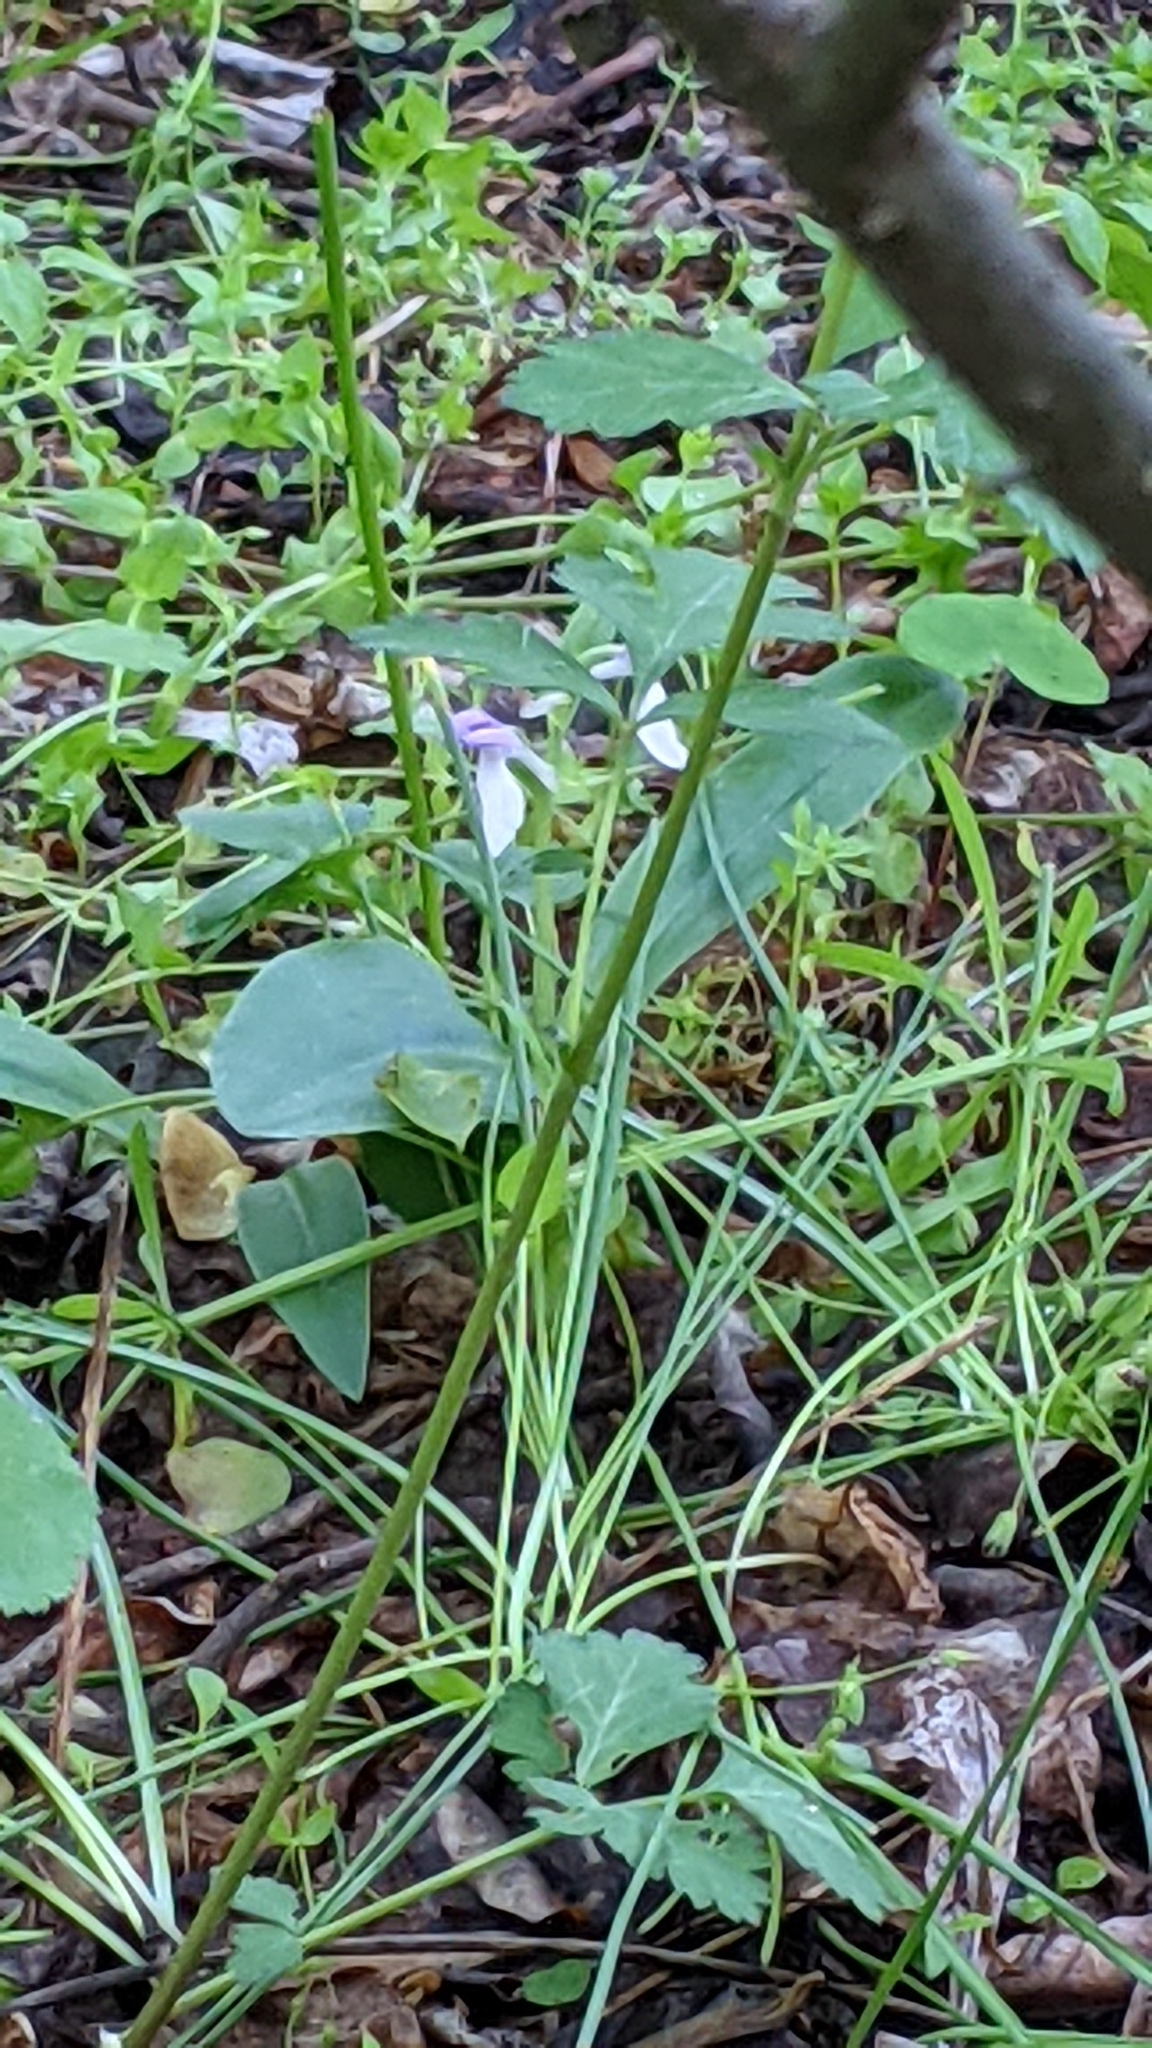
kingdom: Plantae
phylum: Tracheophyta
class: Liliopsida
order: Asparagales
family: Orchidaceae
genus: Galearis
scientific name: Galearis spectabilis
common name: Purple-hooded orchis
